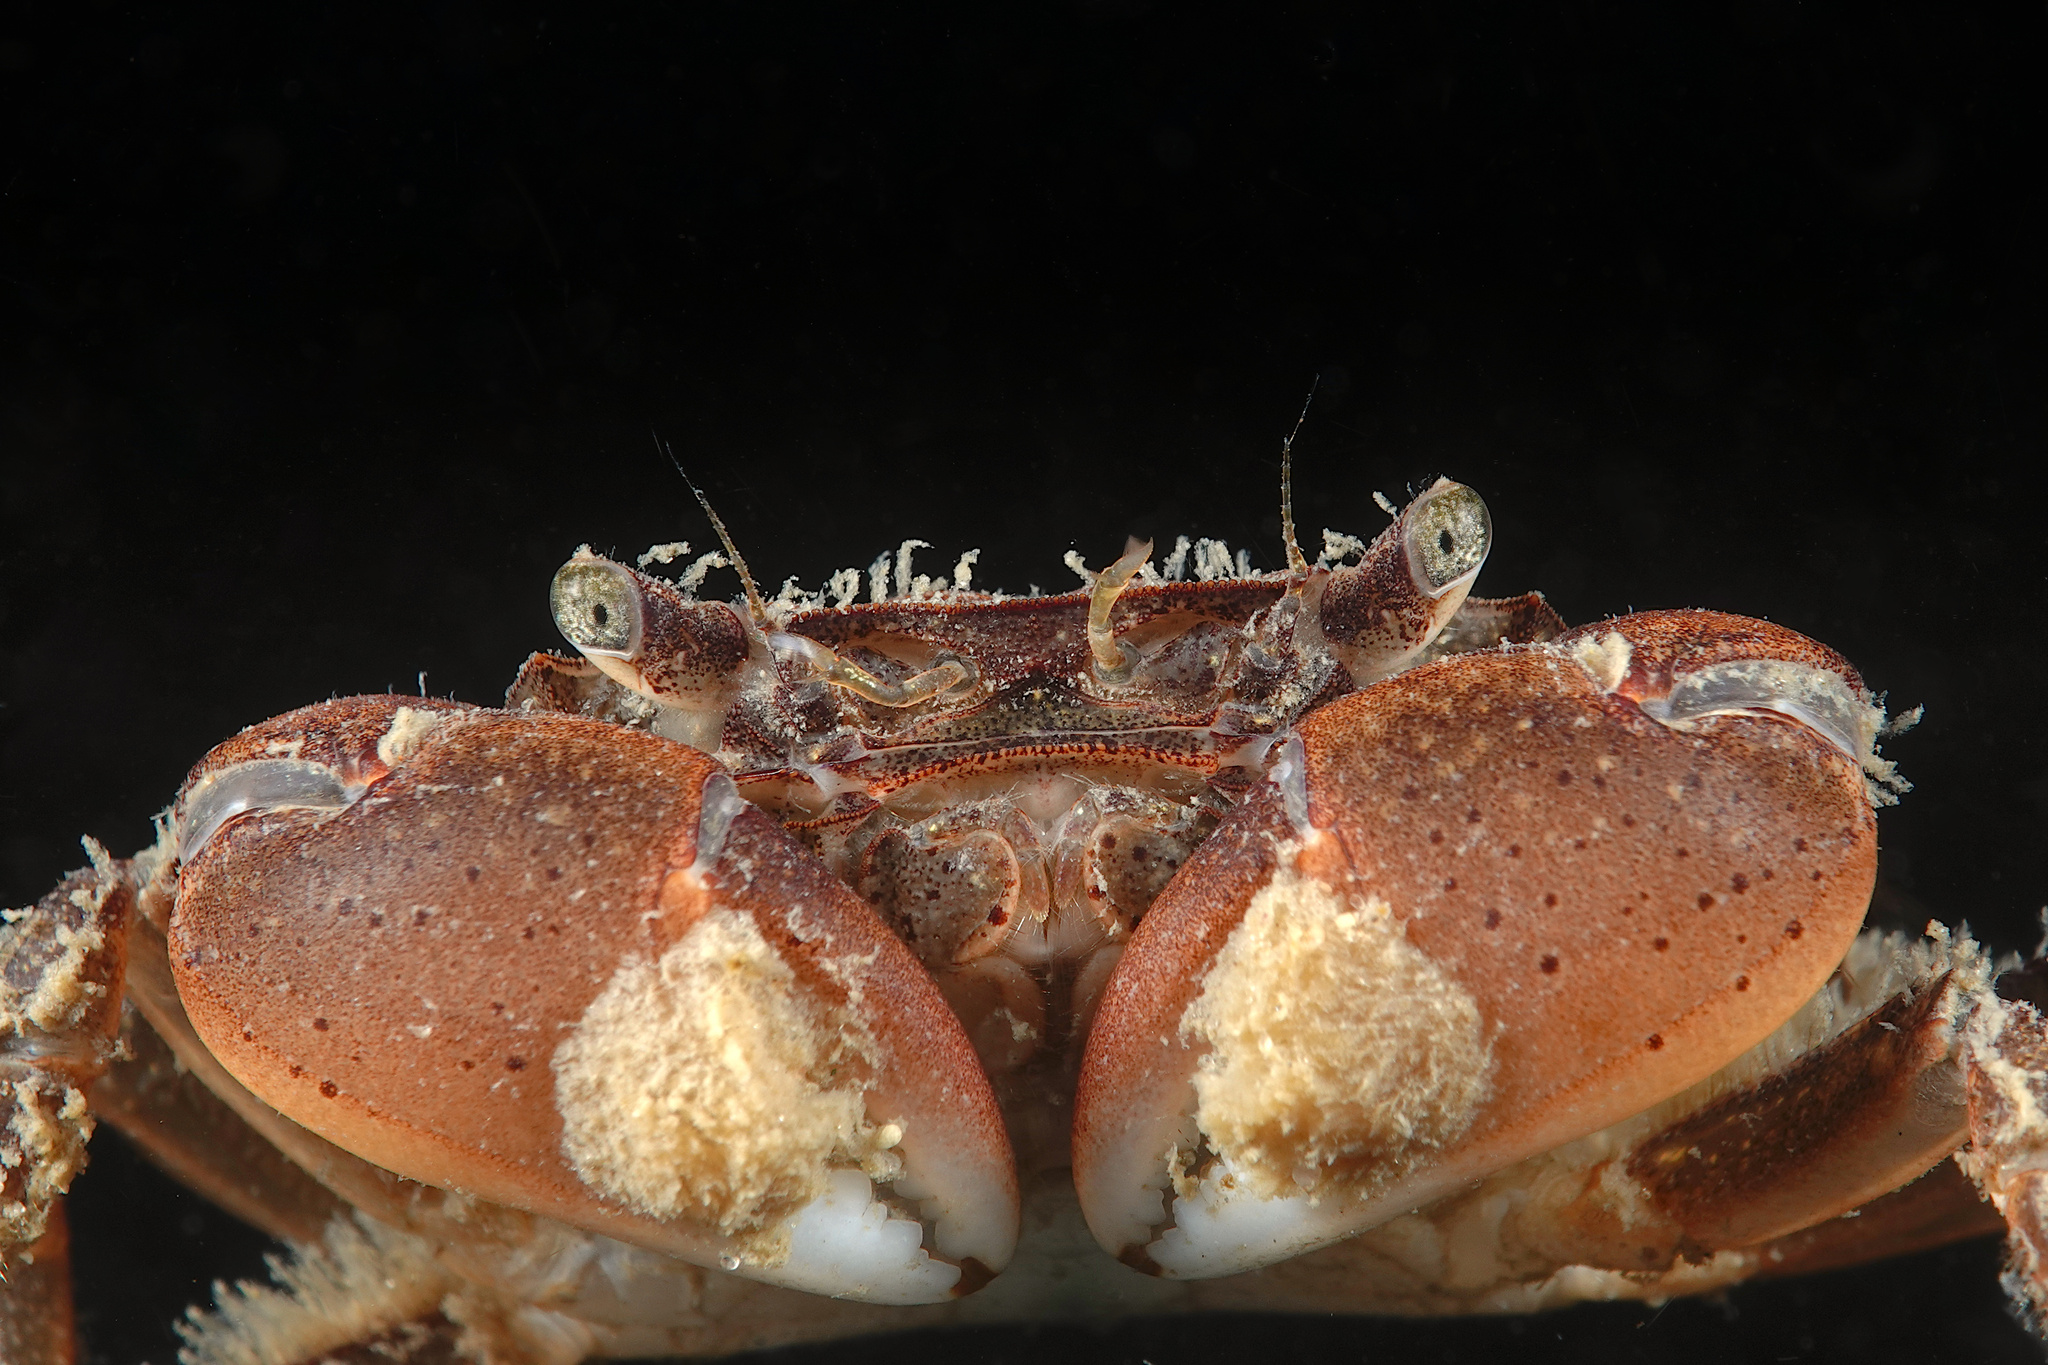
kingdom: Animalia
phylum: Arthropoda
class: Malacostraca
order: Decapoda
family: Varunidae
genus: Hemigrapsus
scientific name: Hemigrapsus takanoi
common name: Asian brush crab
